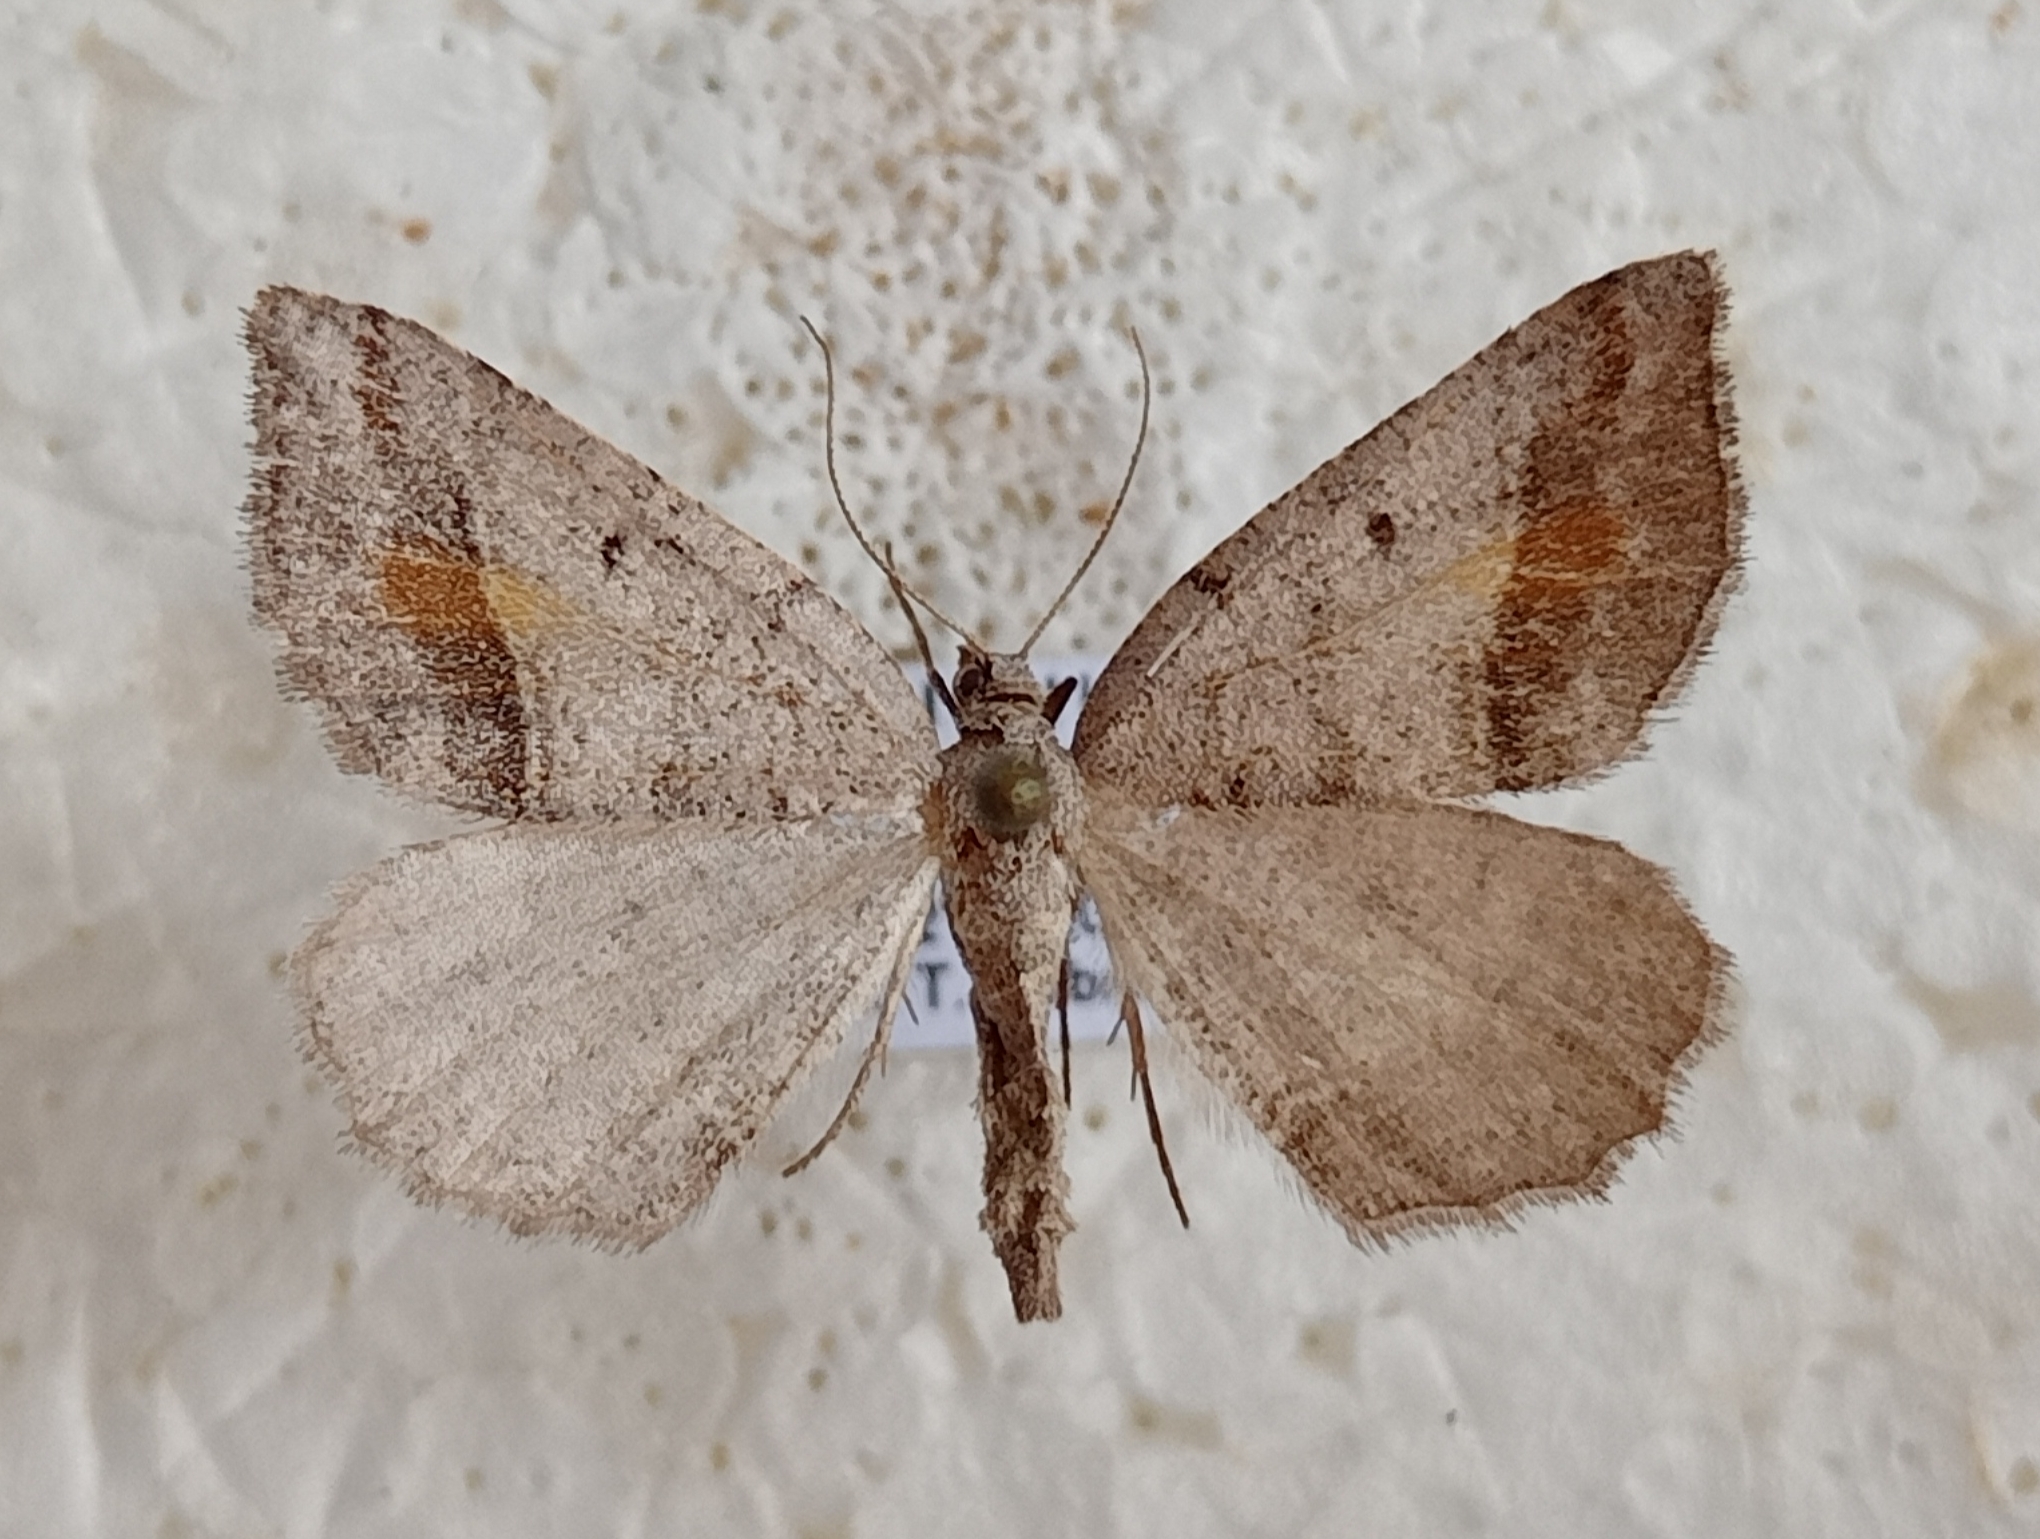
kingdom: Animalia
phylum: Arthropoda
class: Insecta
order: Lepidoptera
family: Geometridae
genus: Macaria
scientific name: Macaria artesiaria
